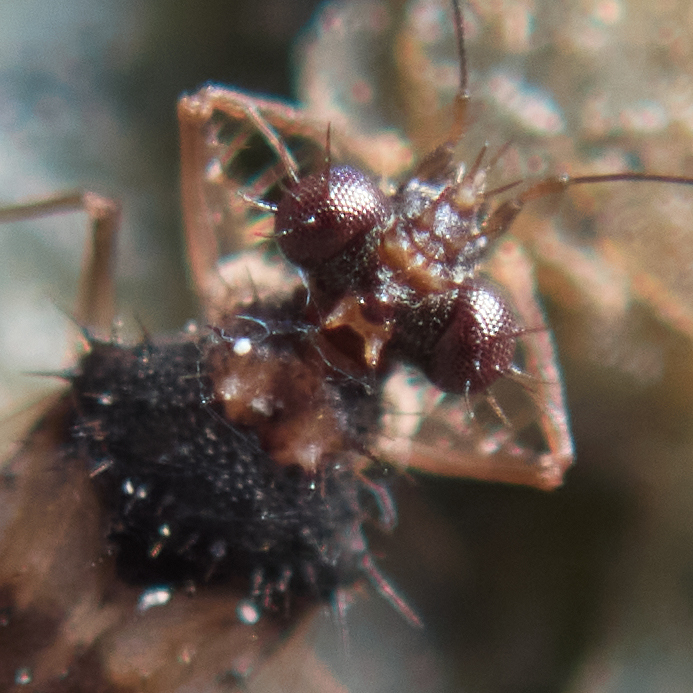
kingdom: Animalia
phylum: Arthropoda
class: Insecta
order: Hemiptera
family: Leptopodidae
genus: Patapius
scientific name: Patapius spinosus
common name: Spiny-legged bug
